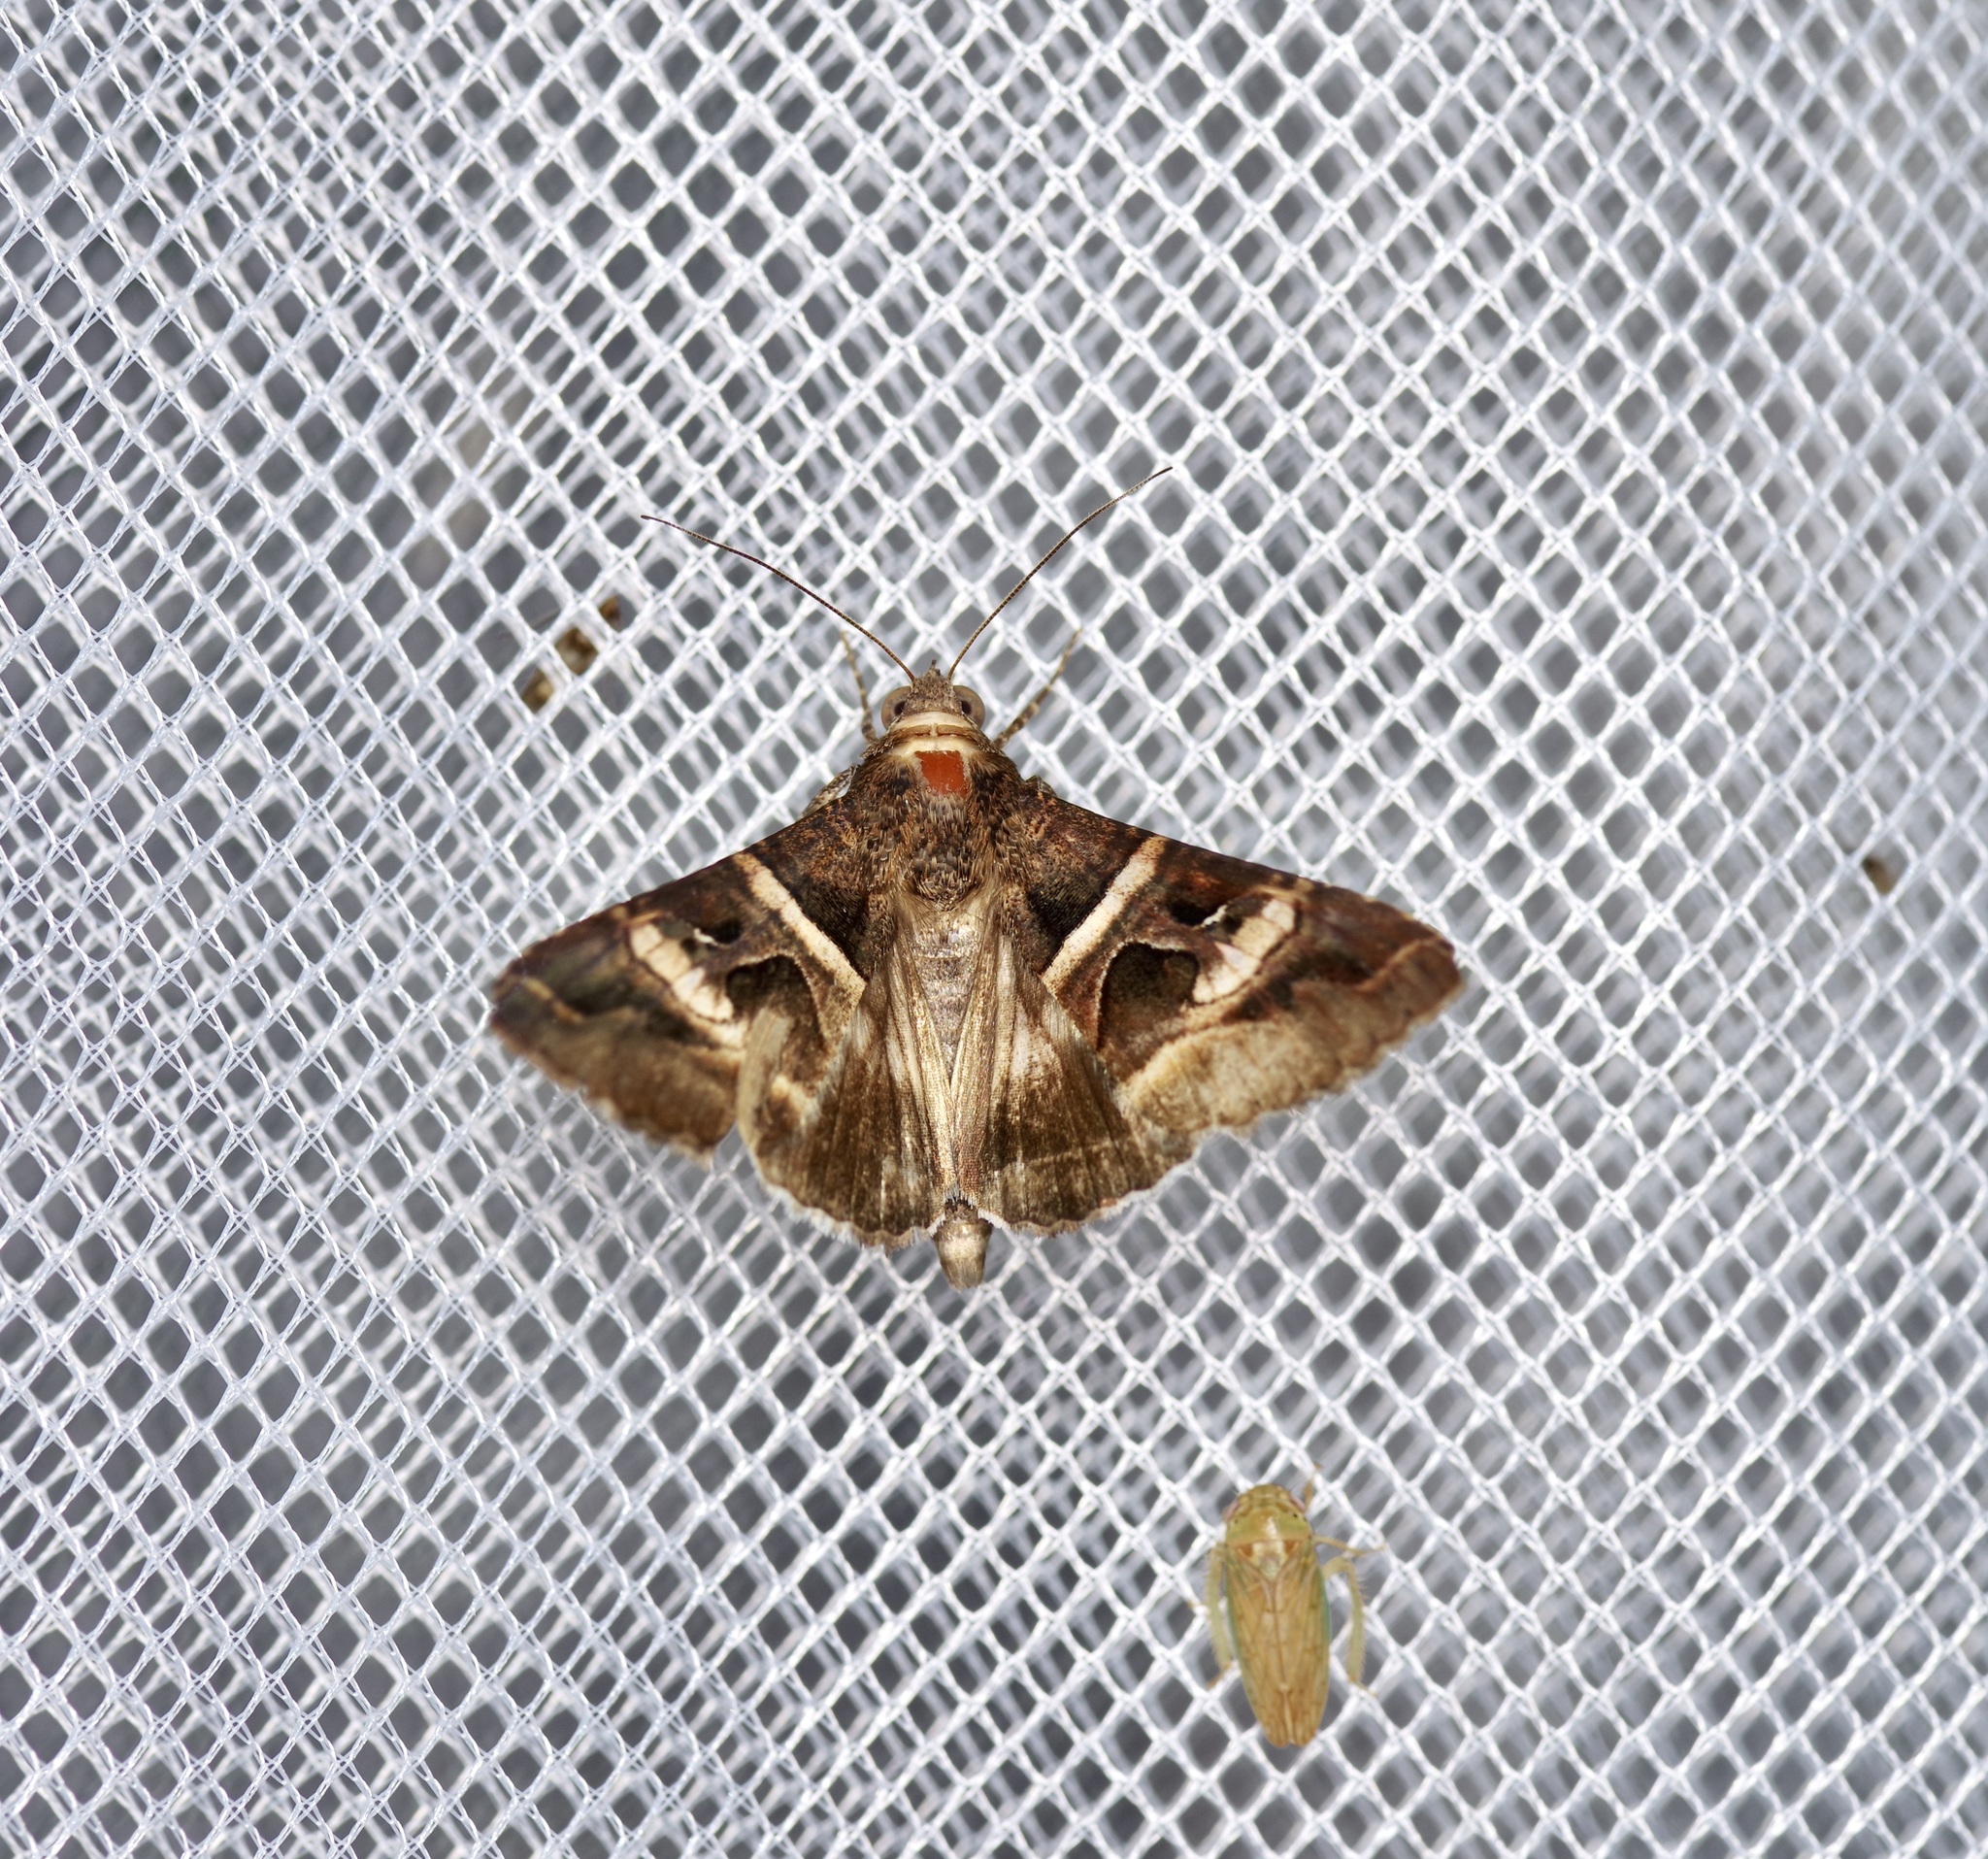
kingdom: Animalia
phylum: Arthropoda
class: Insecta
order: Lepidoptera
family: Erebidae
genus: Melipotis
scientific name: Melipotis perpendicularis
